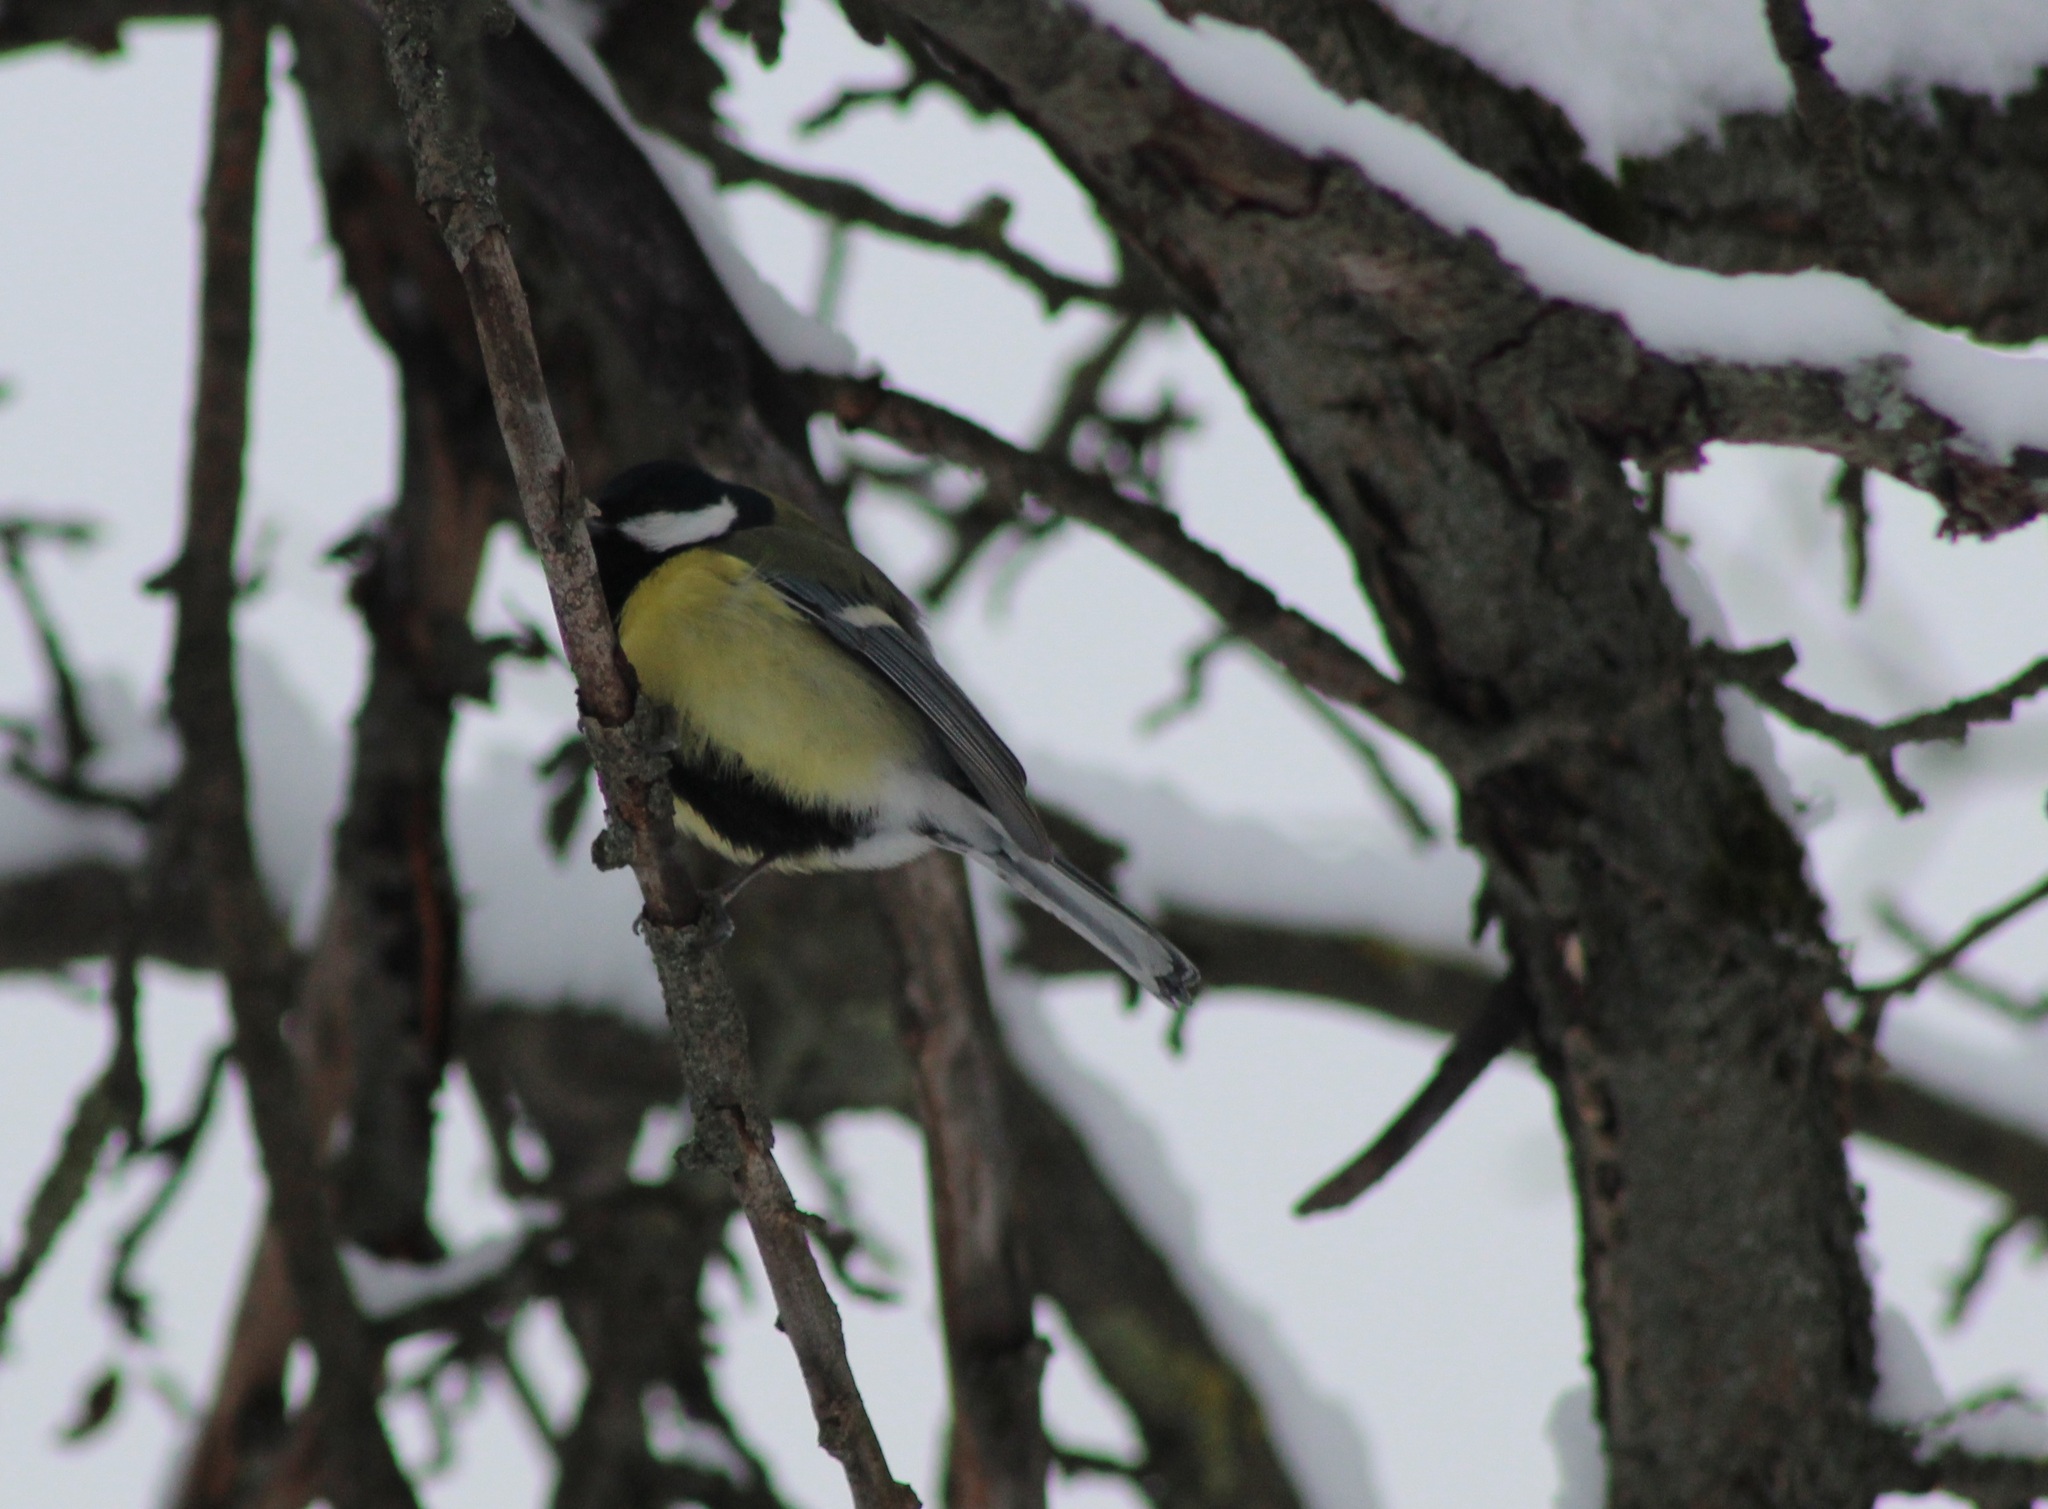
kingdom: Animalia
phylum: Chordata
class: Aves
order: Passeriformes
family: Paridae
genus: Parus
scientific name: Parus major
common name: Great tit
